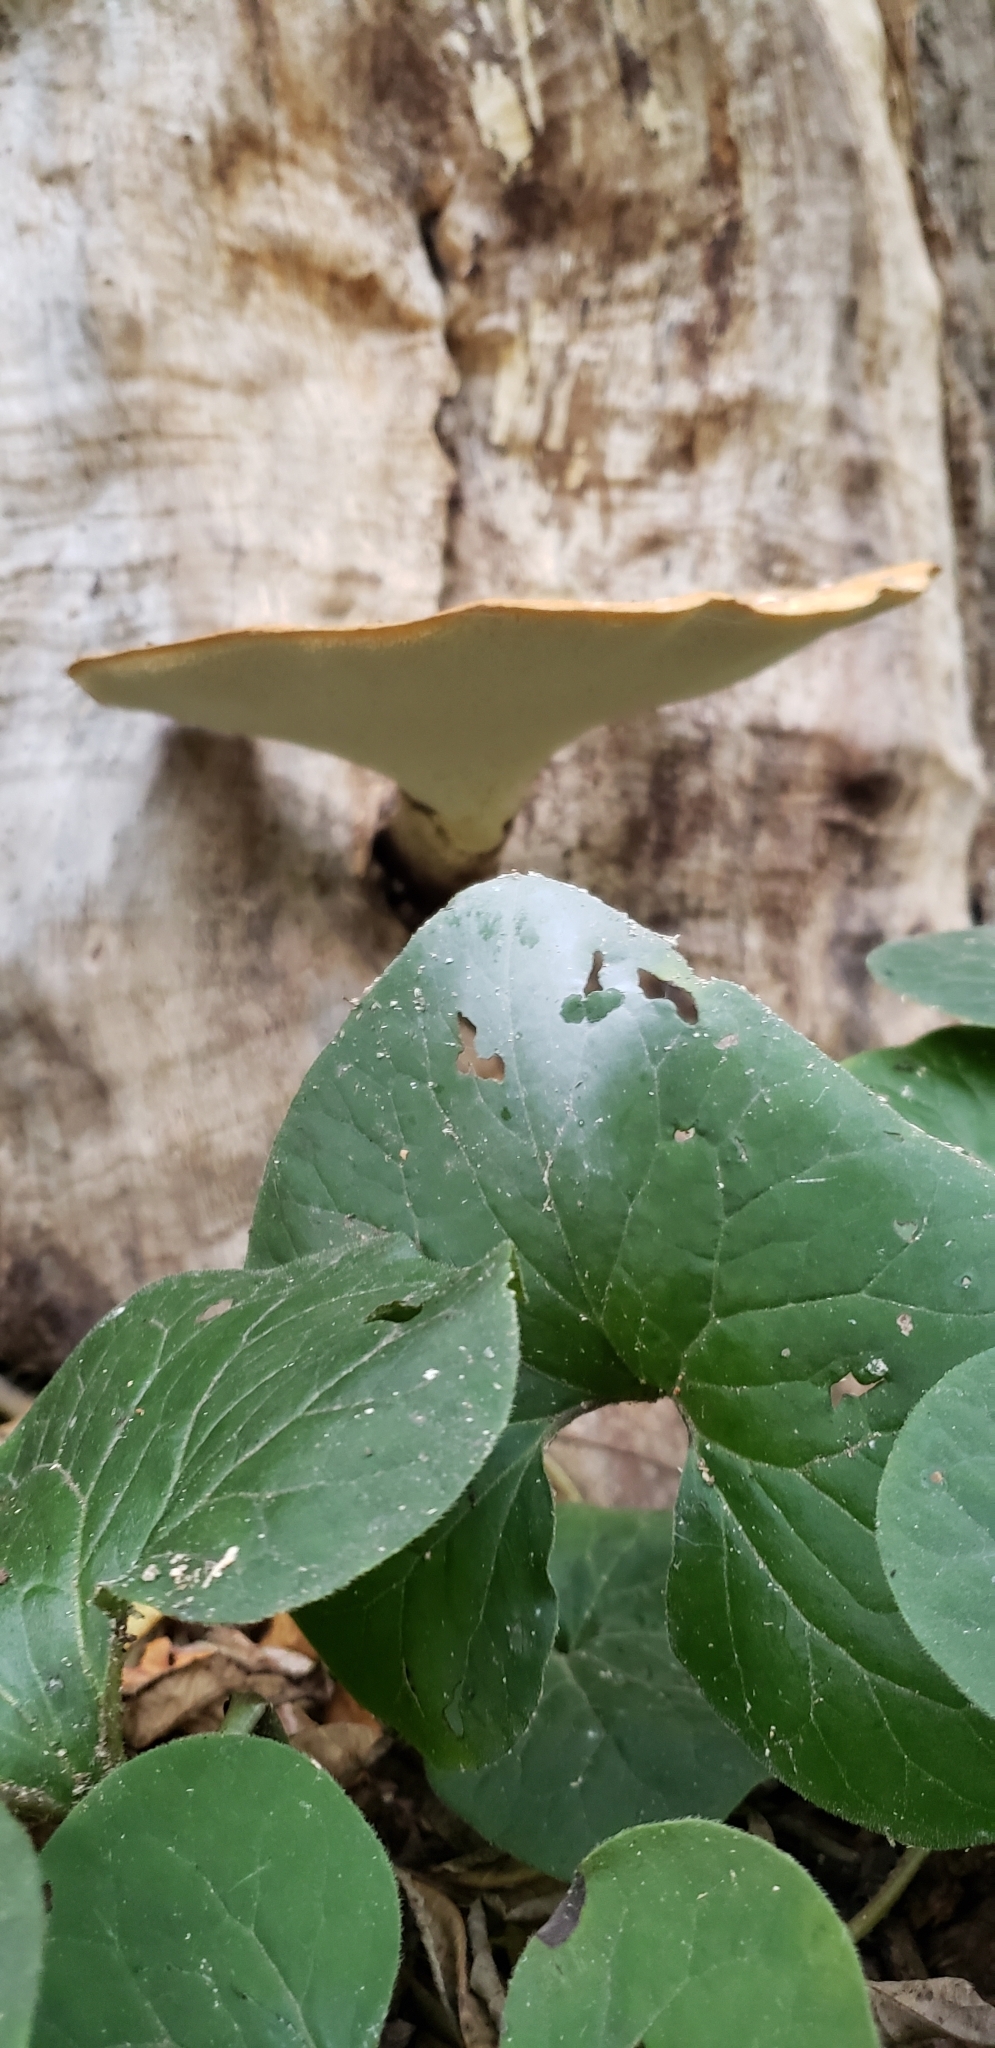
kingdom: Fungi
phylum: Basidiomycota
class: Agaricomycetes
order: Polyporales
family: Polyporaceae
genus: Cerioporus
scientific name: Cerioporus squamosus
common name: Dryad's saddle
